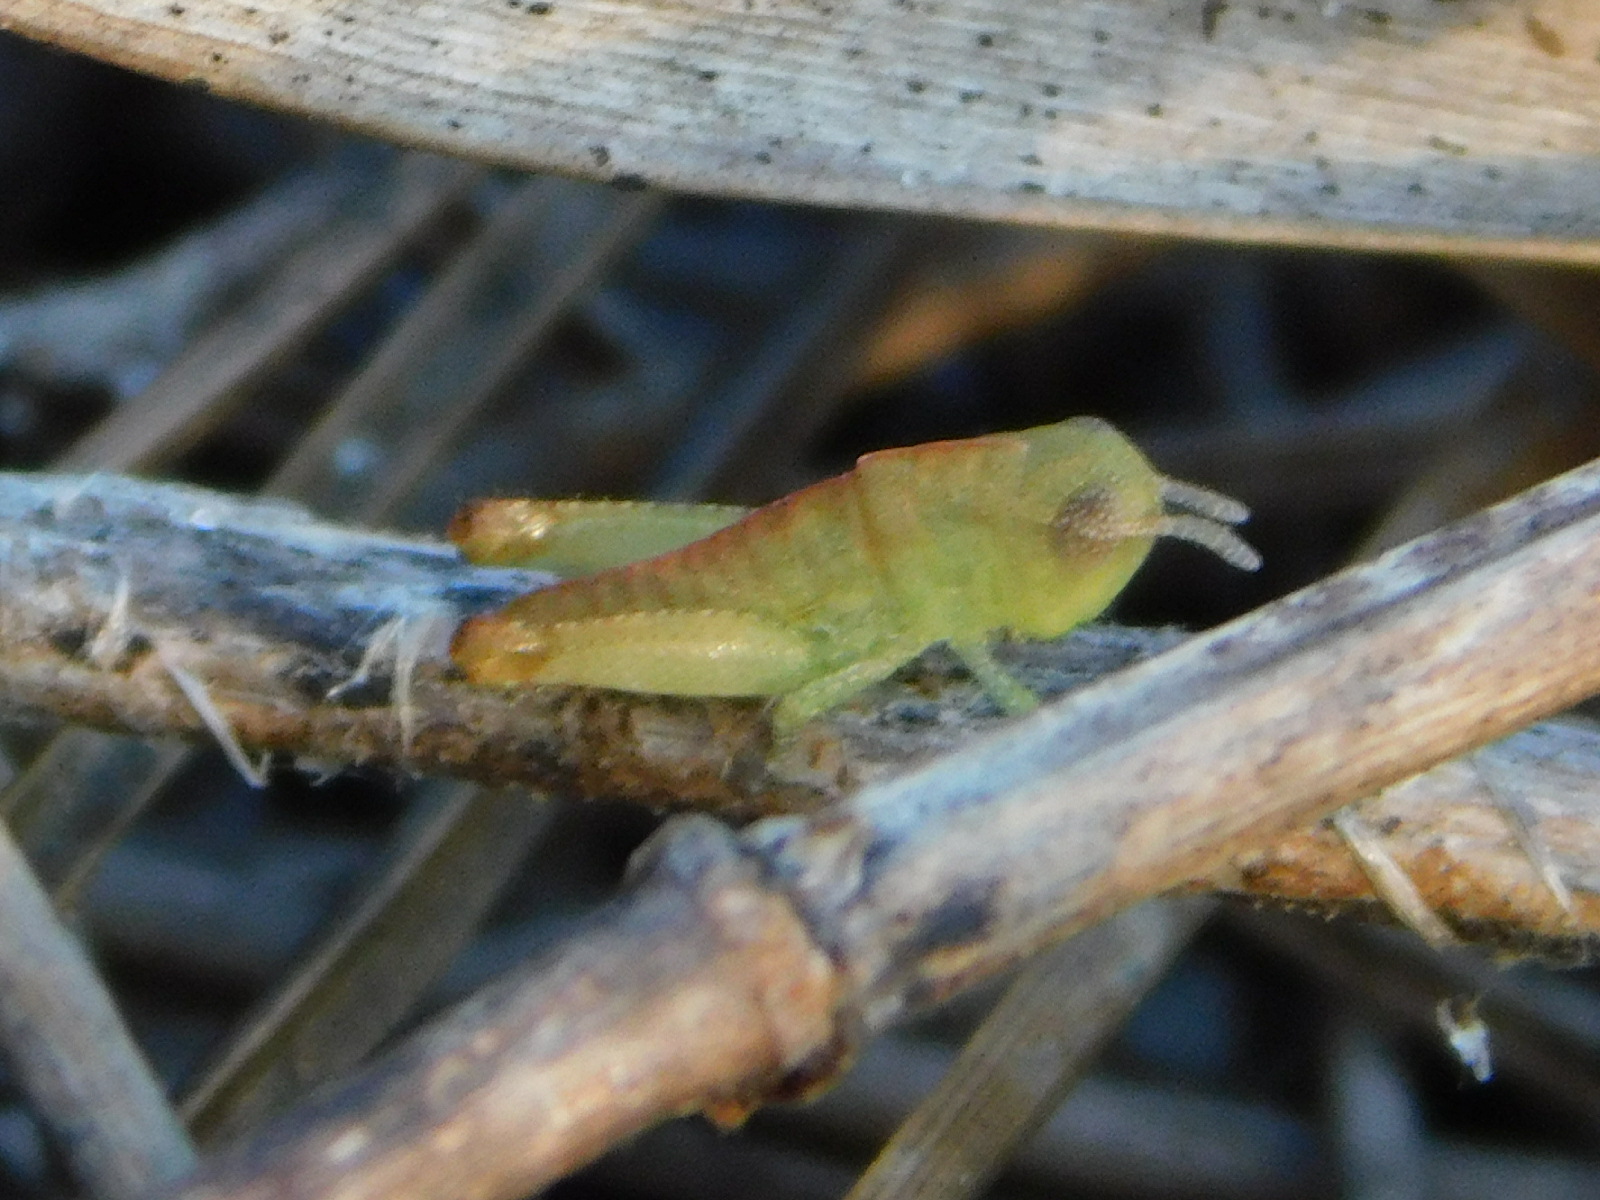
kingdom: Animalia
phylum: Arthropoda
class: Insecta
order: Orthoptera
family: Acrididae
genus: Chortophaga
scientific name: Chortophaga australior
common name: Southern green-striped grasshopper
